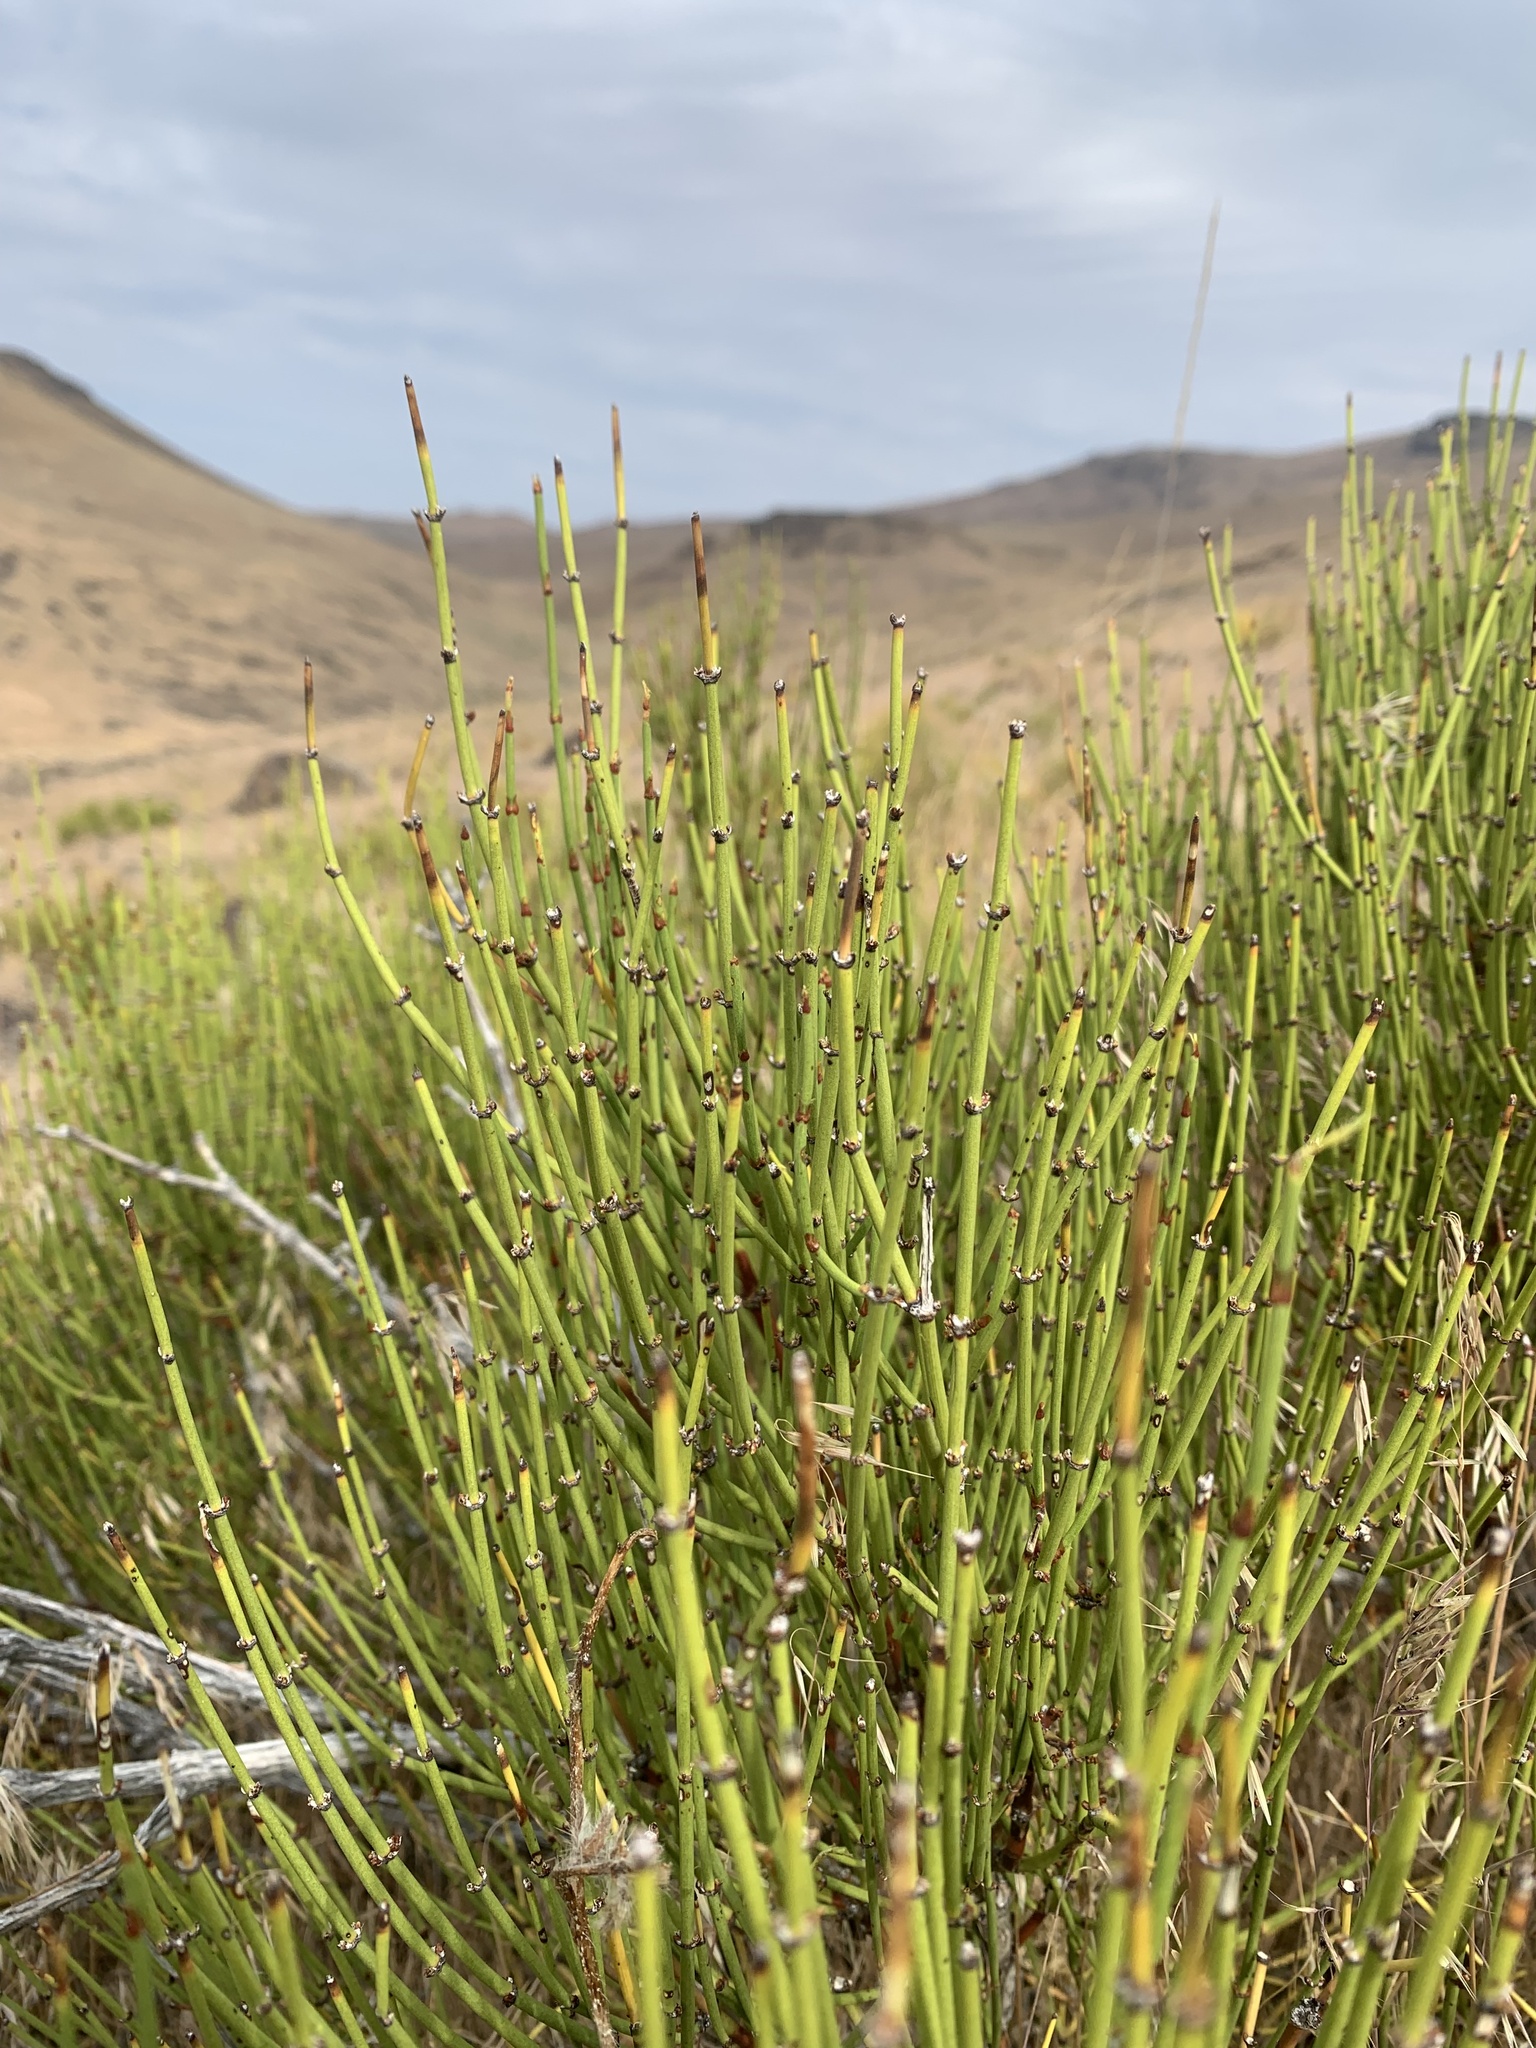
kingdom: Plantae
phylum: Tracheophyta
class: Gnetopsida
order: Ephedrales
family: Ephedraceae
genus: Ephedra
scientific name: Ephedra viridis
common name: Green ephedra
